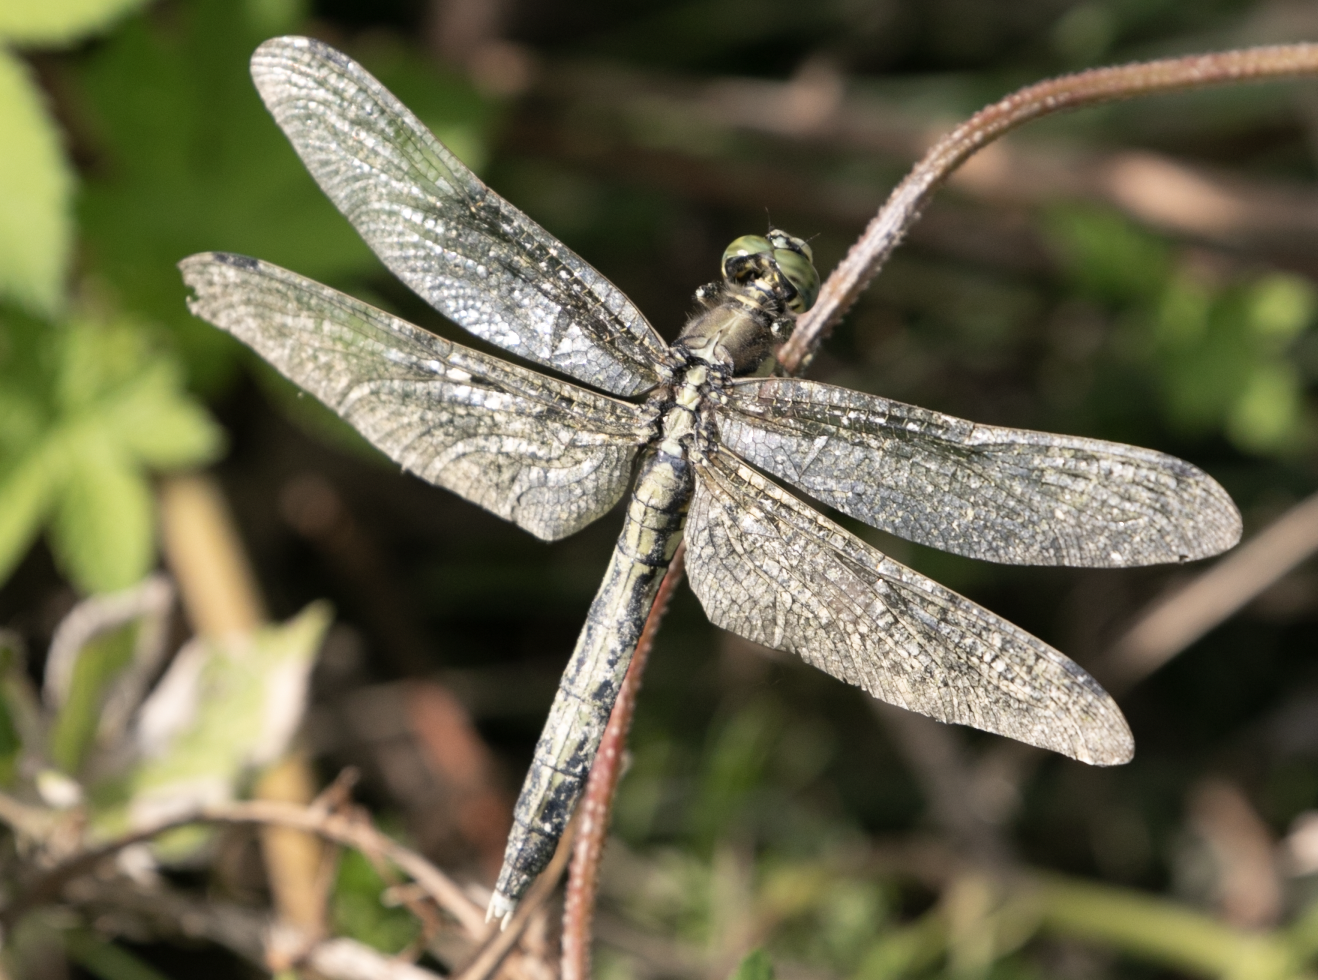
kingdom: Animalia
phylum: Arthropoda
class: Insecta
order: Odonata
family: Libellulidae
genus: Orthetrum
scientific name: Orthetrum albistylum
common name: White-tailed skimmer
